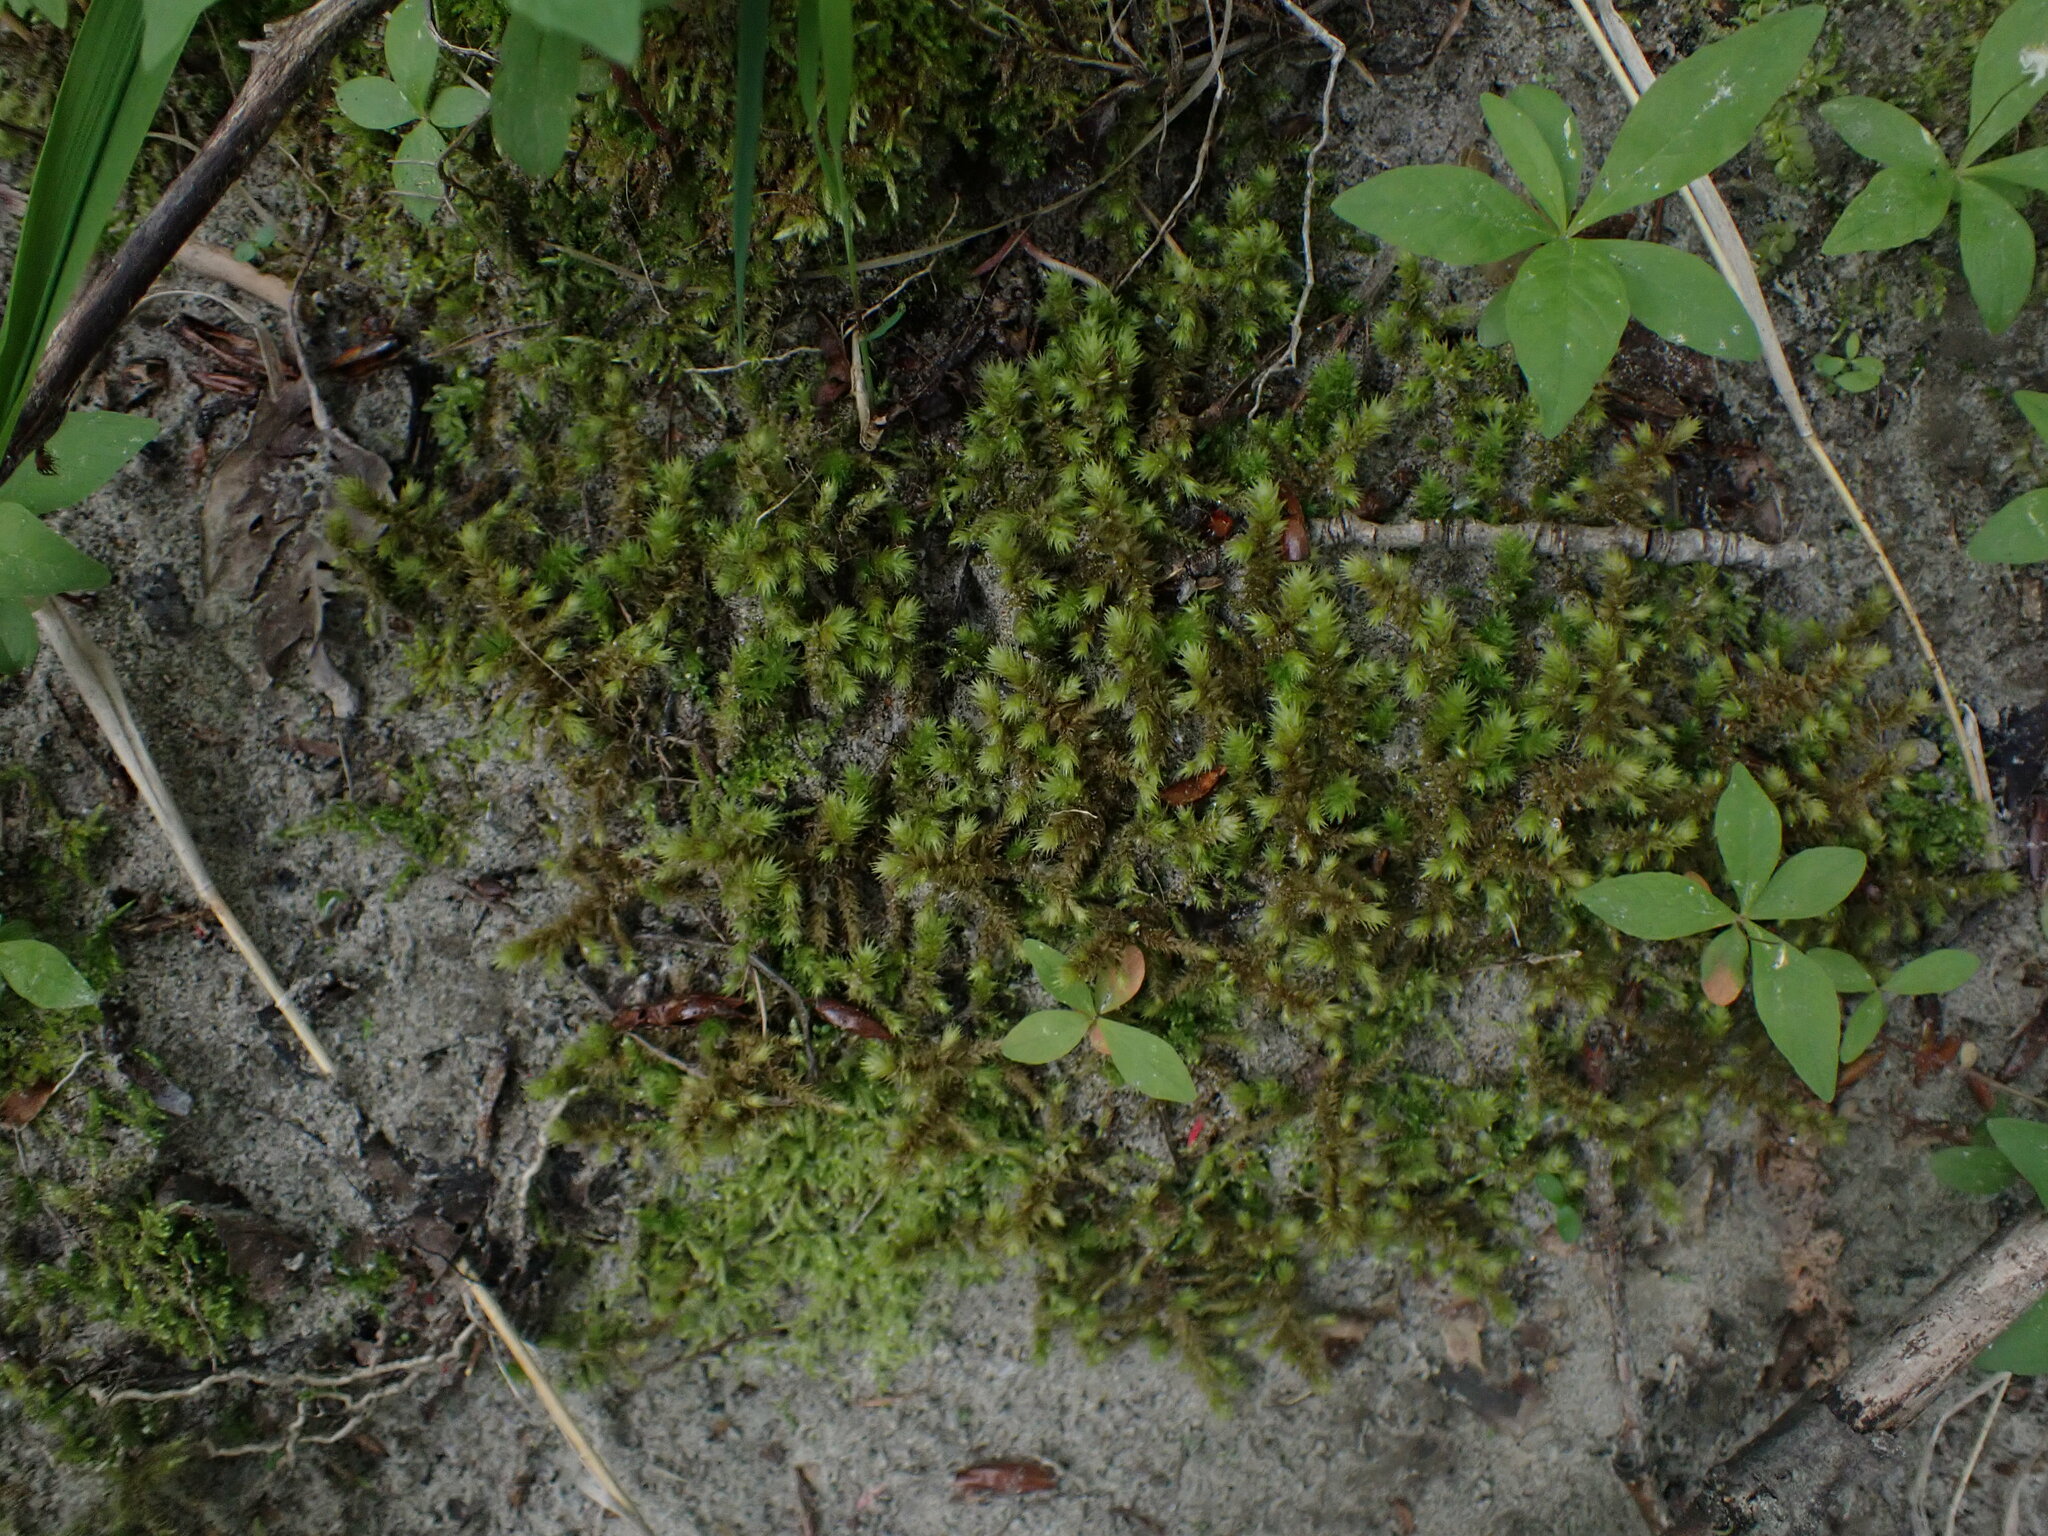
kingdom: Plantae
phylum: Bryophyta
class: Bryopsida
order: Hypnales
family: Hylocomiaceae
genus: Hylocomiadelphus
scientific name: Hylocomiadelphus triquetrus
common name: Rough goose neck moss
